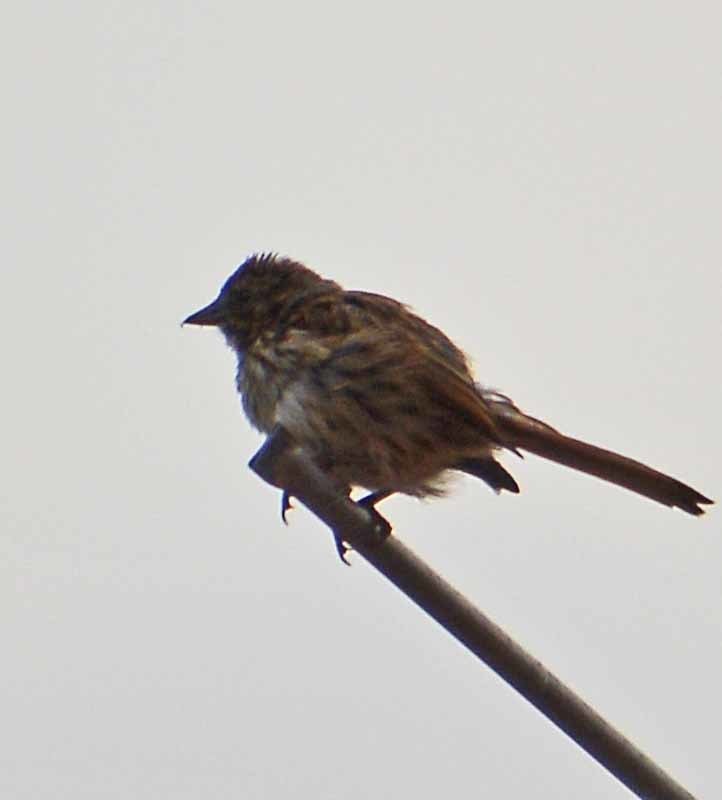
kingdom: Animalia
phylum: Chordata
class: Aves
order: Passeriformes
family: Passerellidae
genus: Melospiza
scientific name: Melospiza melodia
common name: Song sparrow
